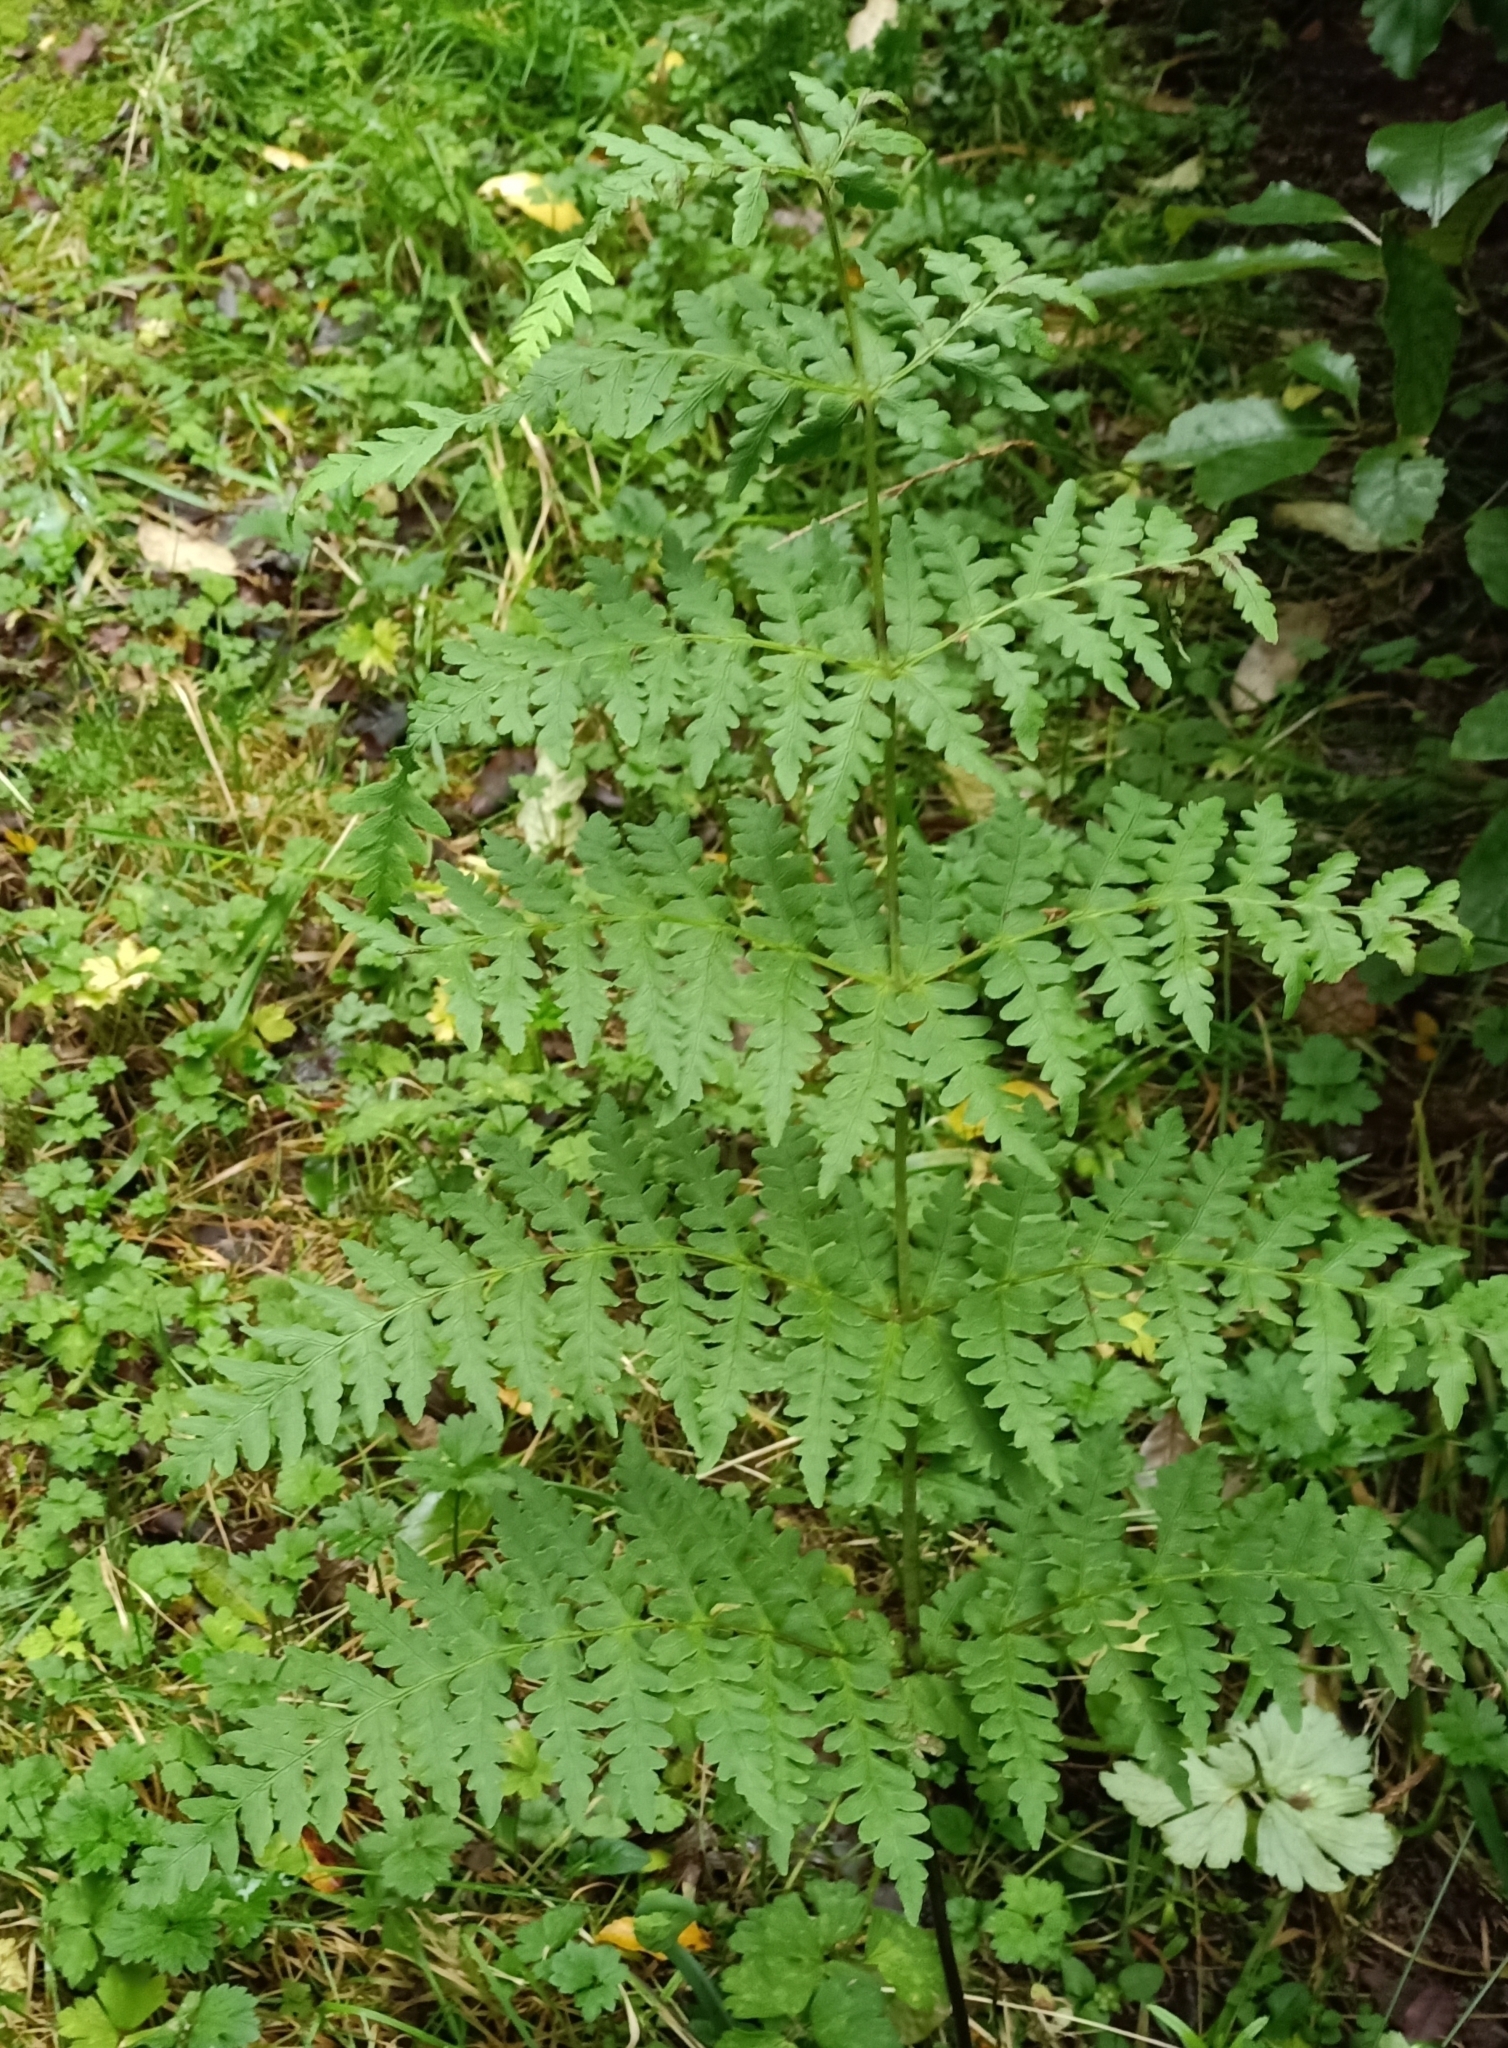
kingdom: Plantae
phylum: Tracheophyta
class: Polypodiopsida
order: Polypodiales
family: Dennstaedtiaceae
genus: Histiopteris
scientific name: Histiopteris incisa
